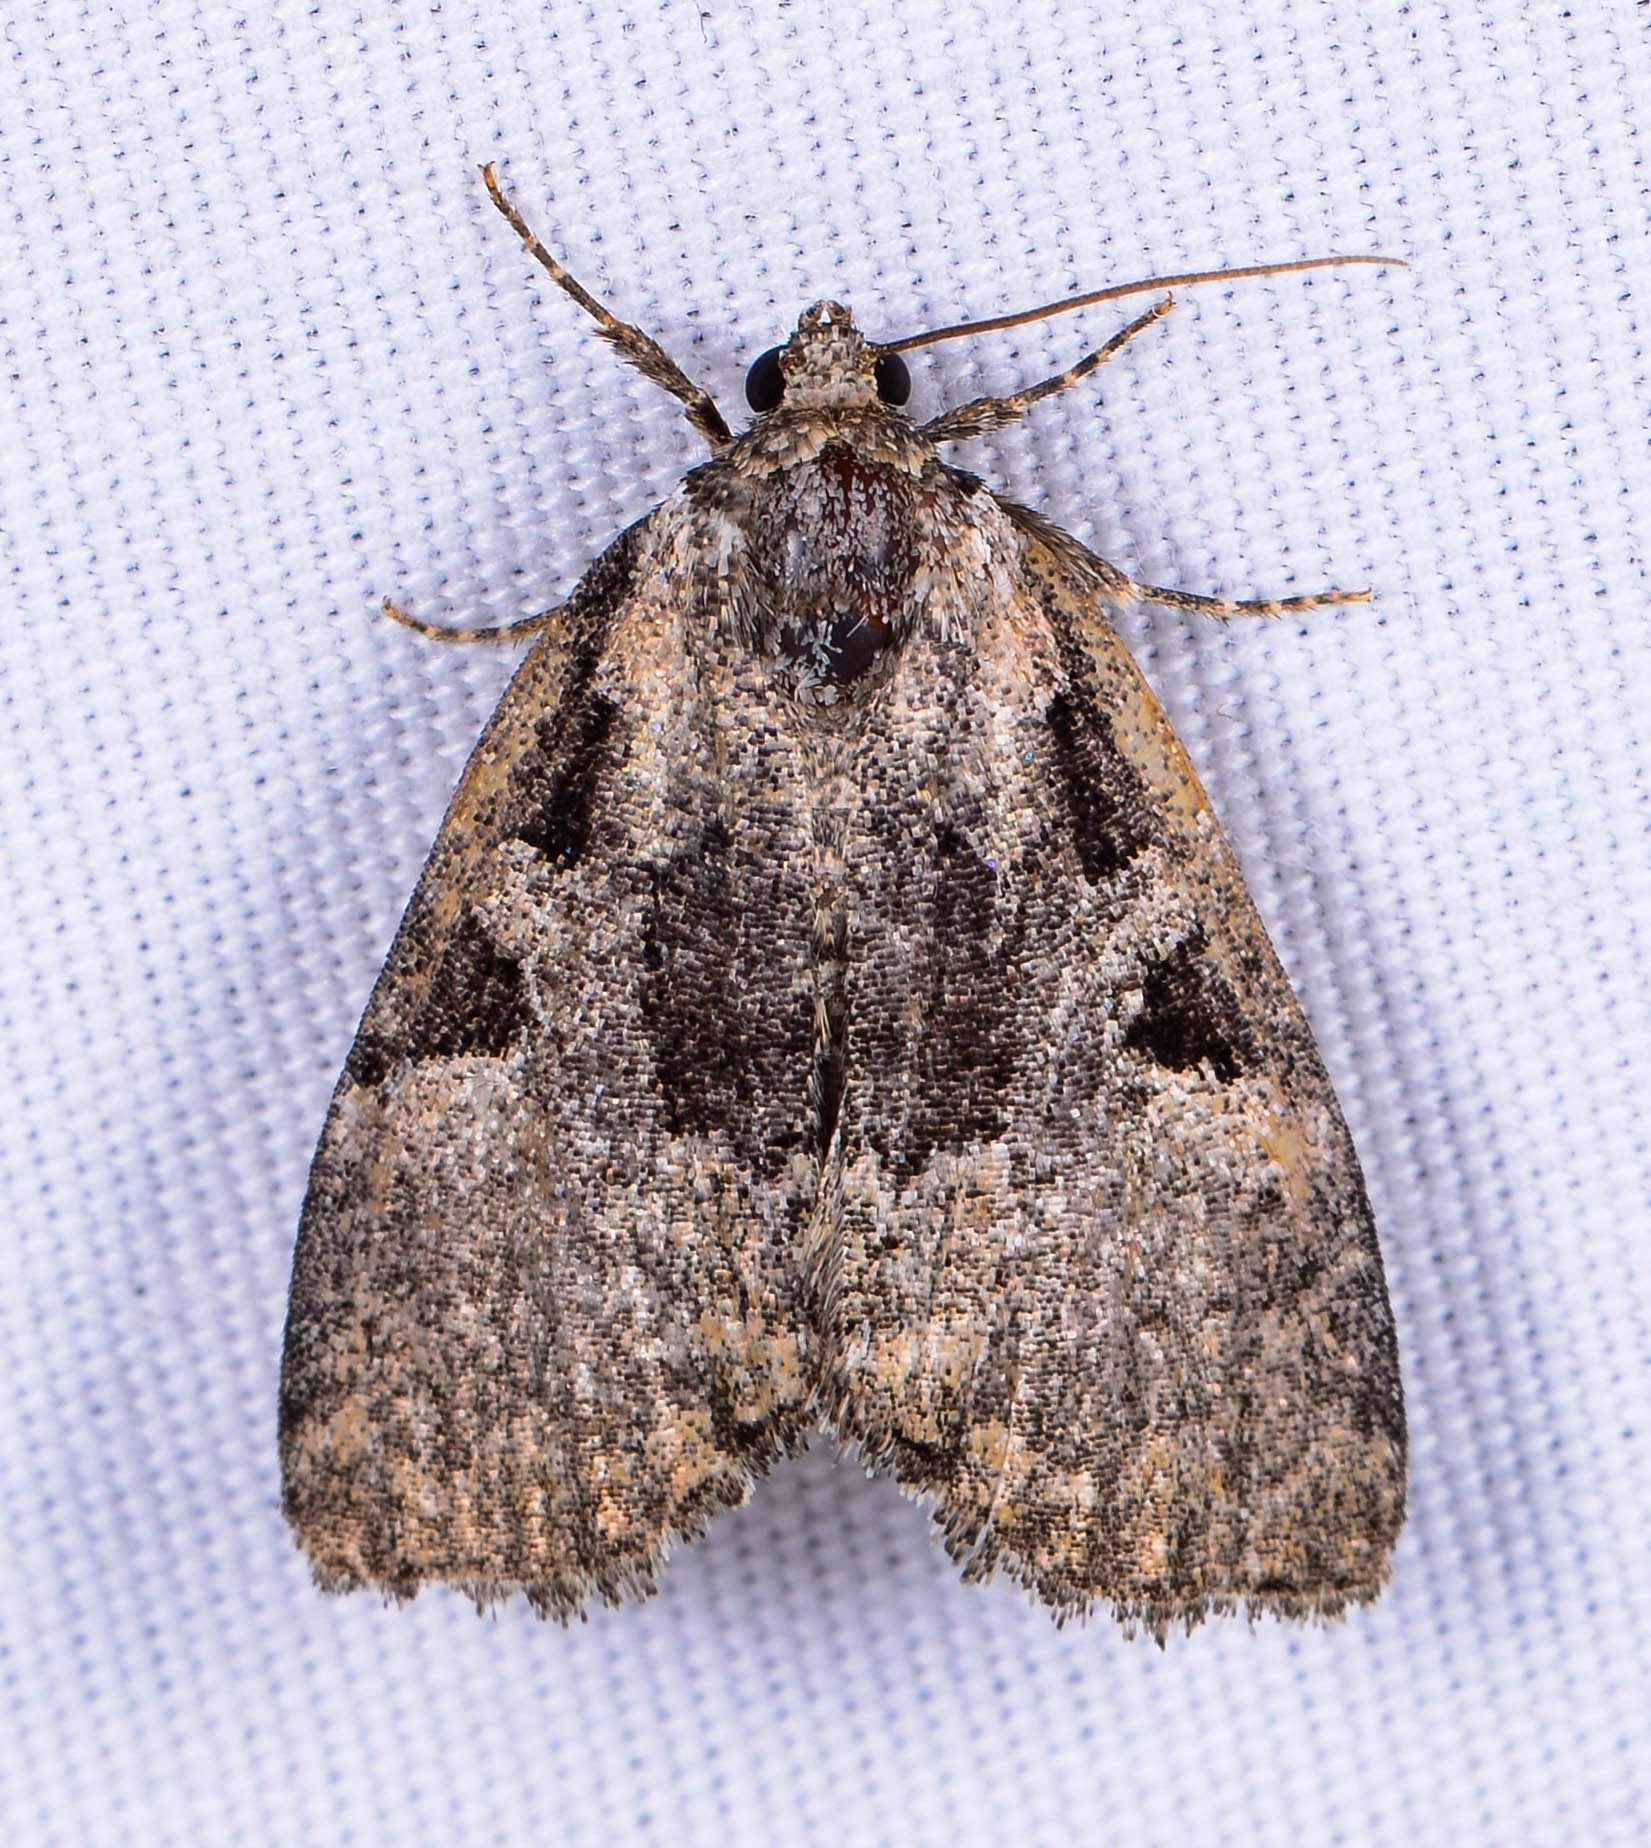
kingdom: Animalia
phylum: Arthropoda
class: Insecta
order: Lepidoptera
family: Noctuidae
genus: Leuconycta
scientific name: Leuconycta lepidula
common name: Marbled-green leuconycta moth
